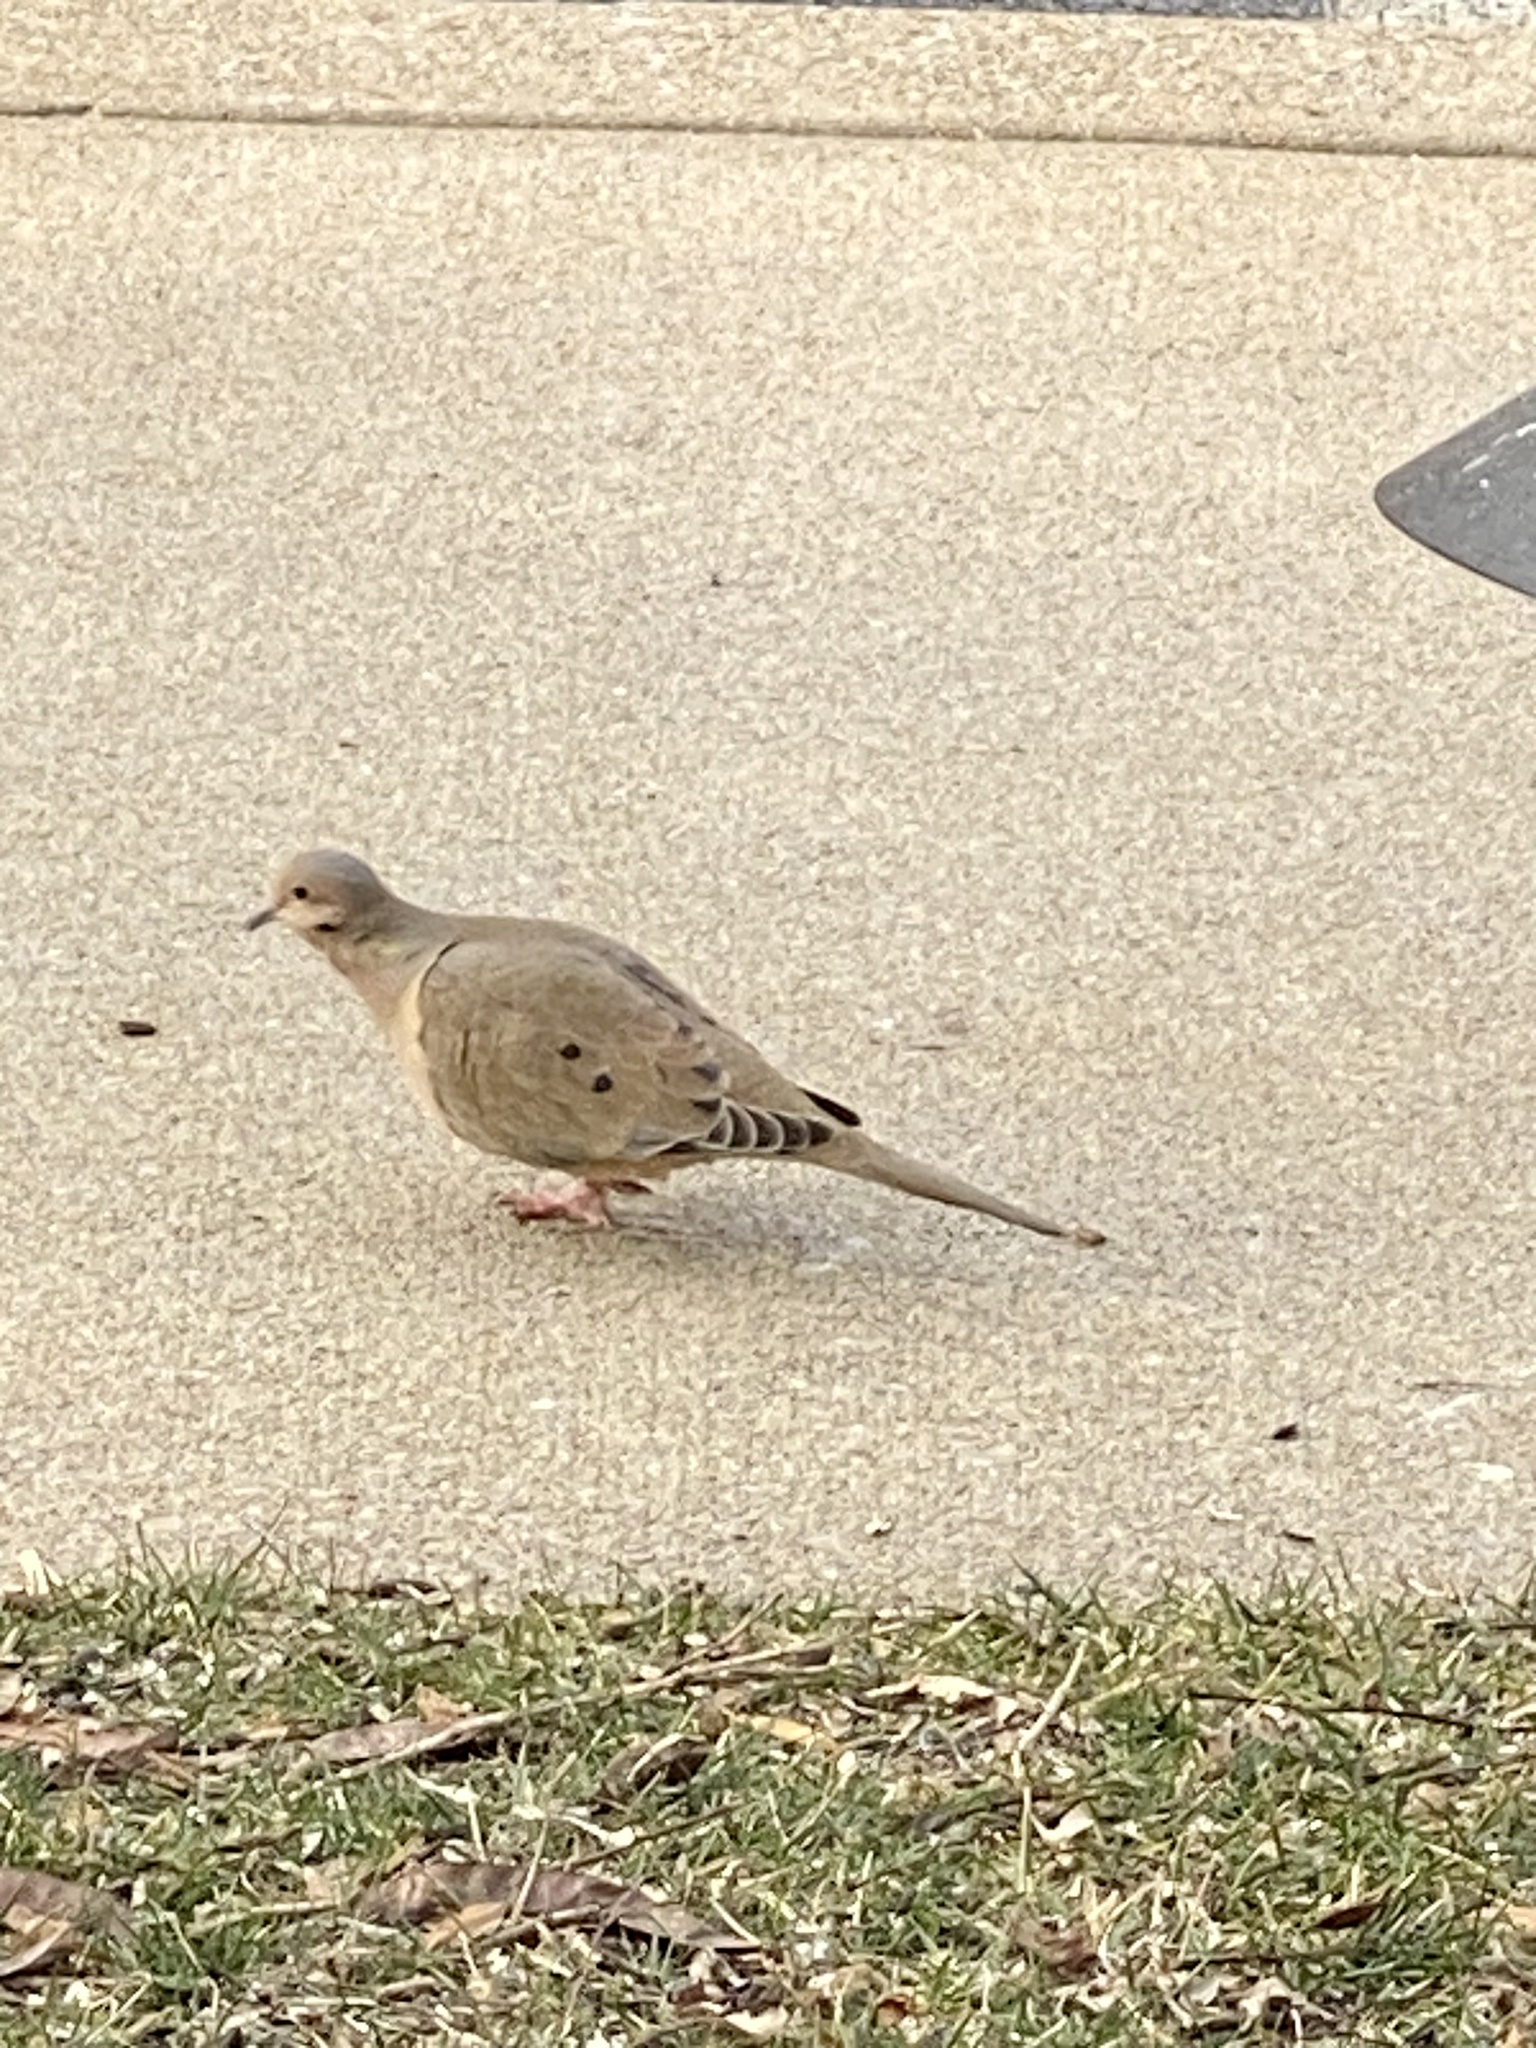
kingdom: Animalia
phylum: Chordata
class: Aves
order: Columbiformes
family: Columbidae
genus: Zenaida
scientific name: Zenaida macroura
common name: Mourning dove
